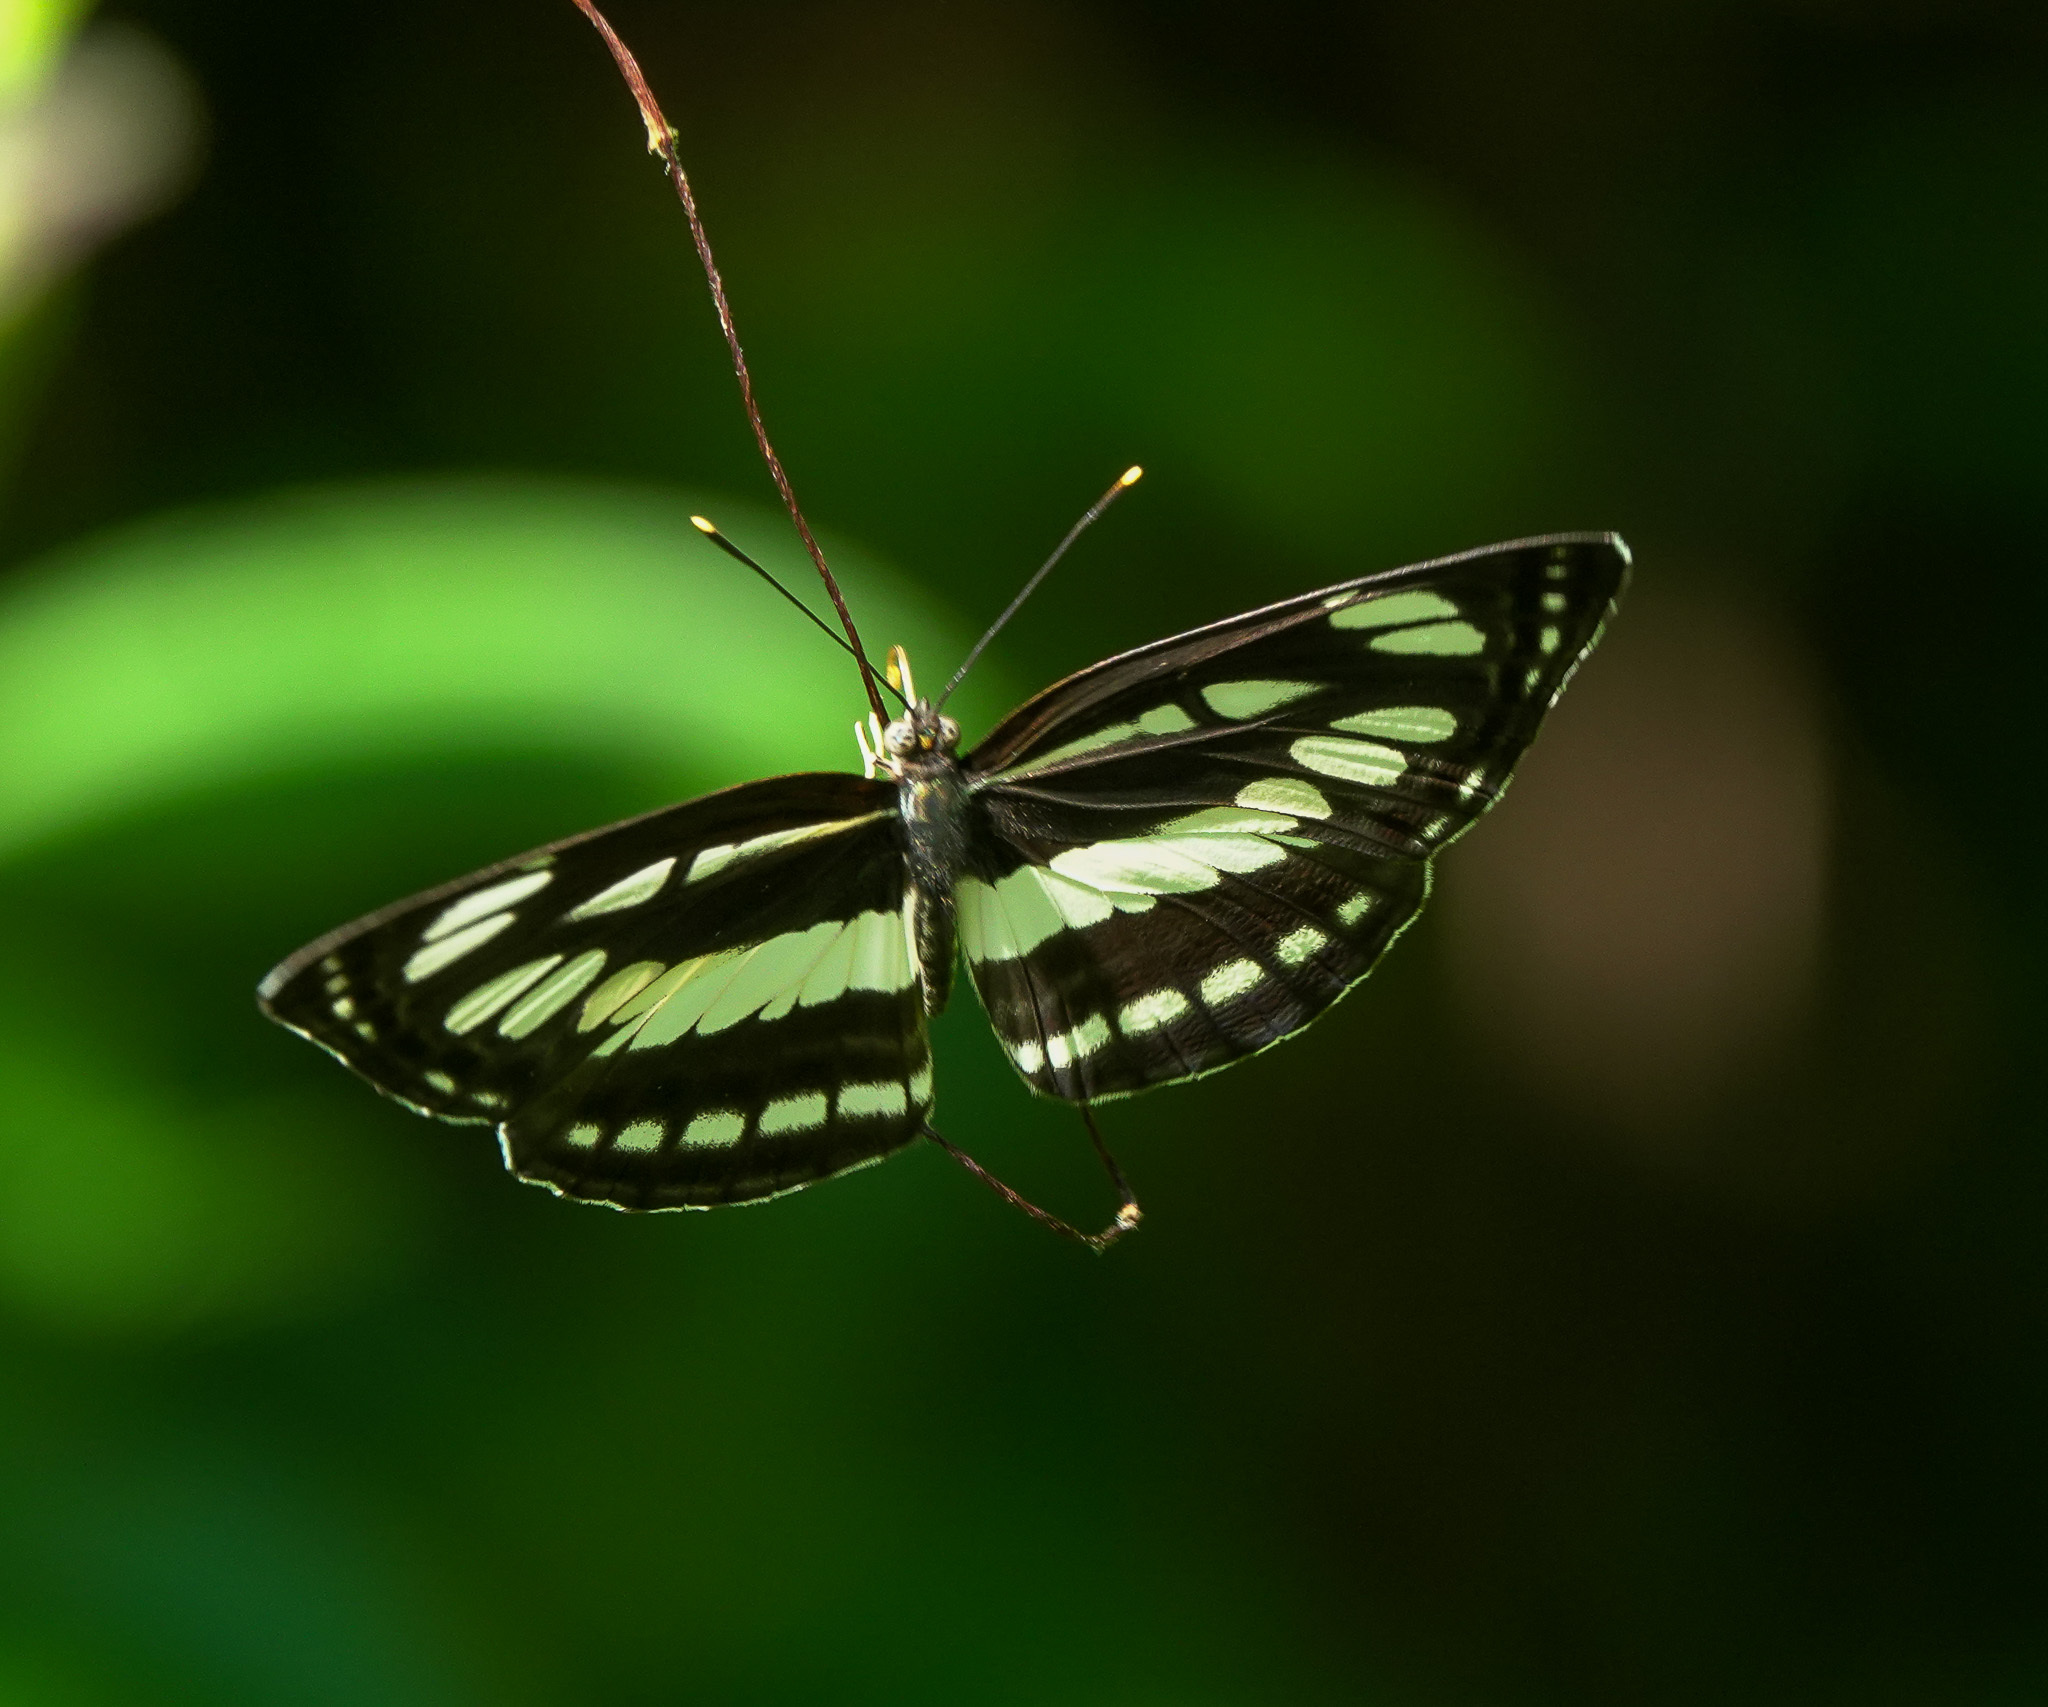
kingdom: Animalia
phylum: Arthropoda
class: Insecta
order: Lepidoptera
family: Nymphalidae
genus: Neptis
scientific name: Neptis hylas
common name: Common sailer
